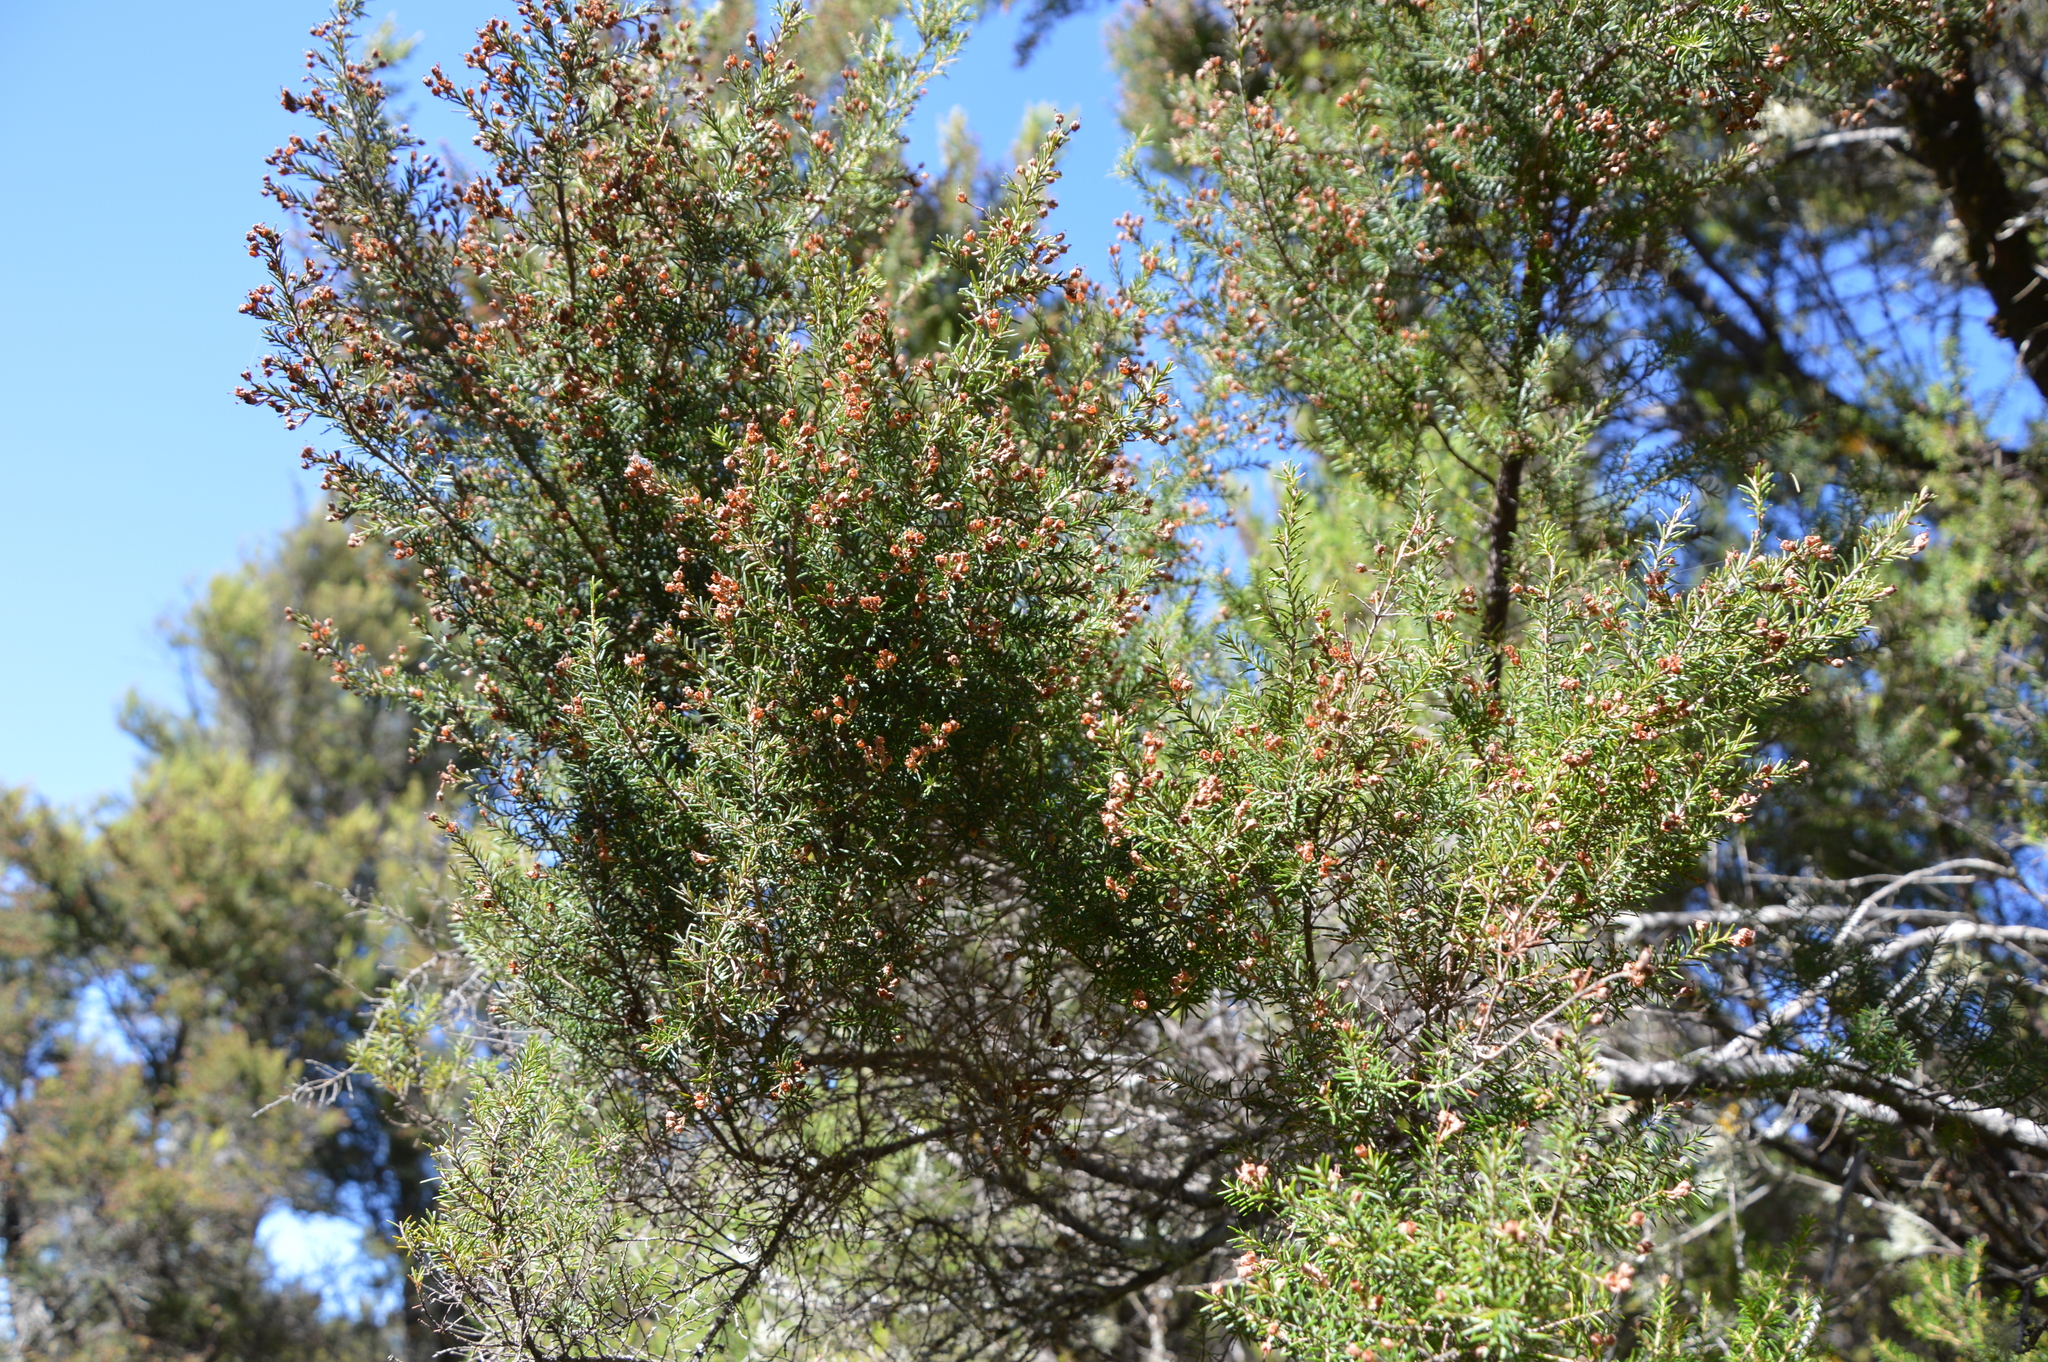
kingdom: Plantae
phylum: Tracheophyta
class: Magnoliopsida
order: Ericales
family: Ericaceae
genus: Erica
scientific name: Erica canariensis
